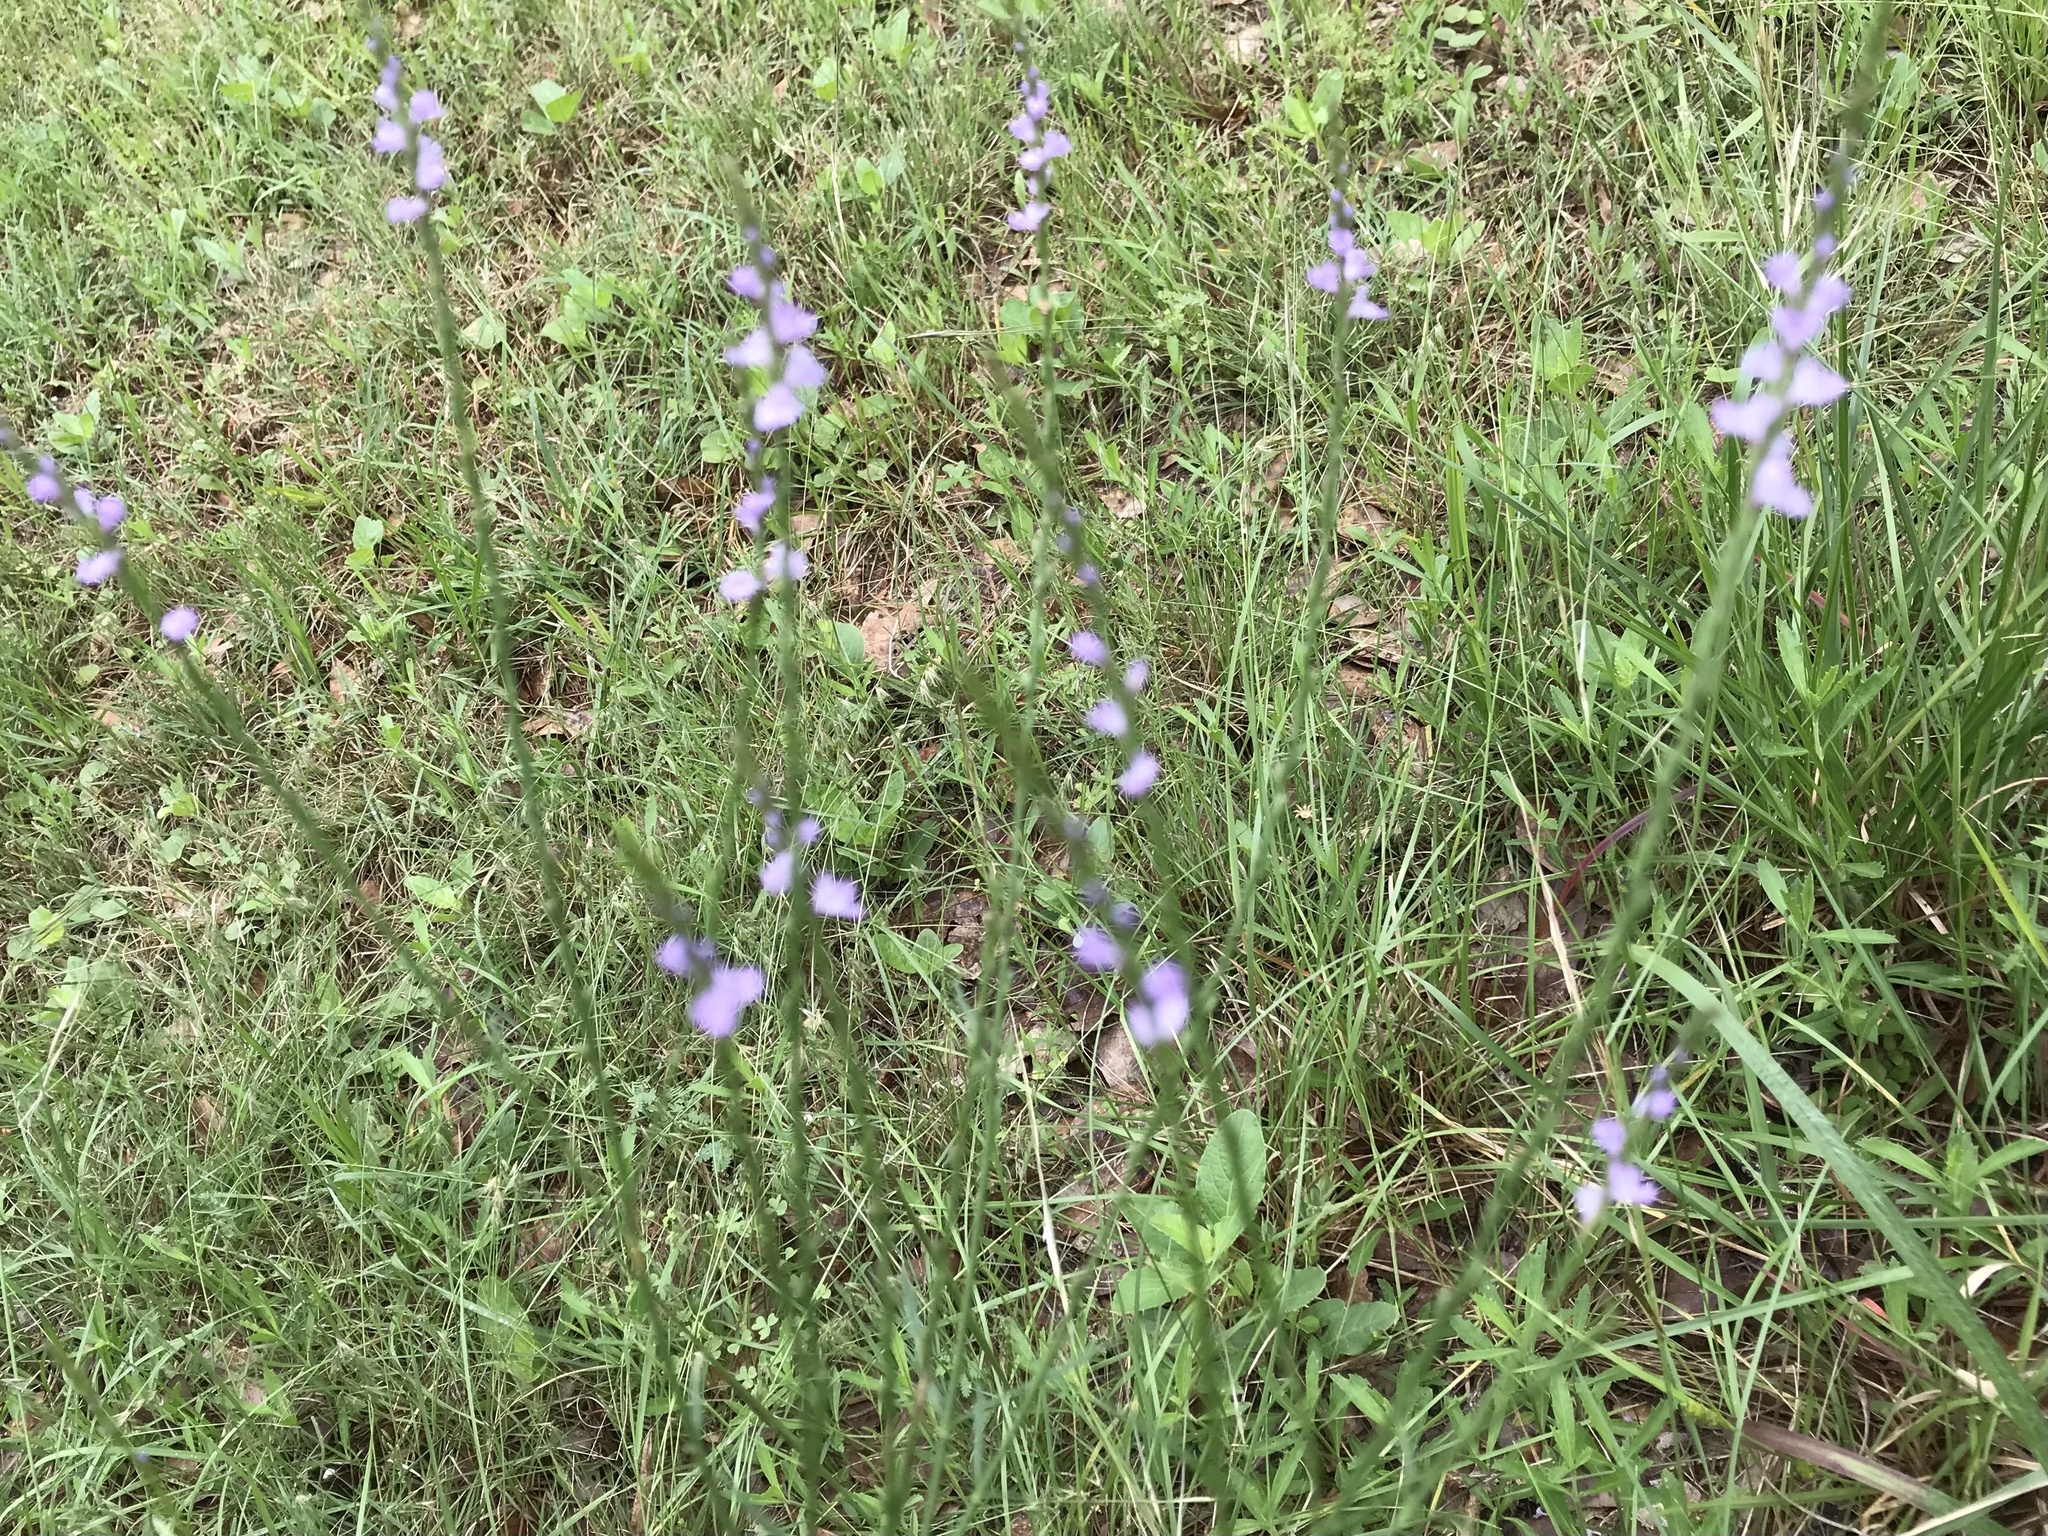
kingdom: Plantae
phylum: Tracheophyta
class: Magnoliopsida
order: Lamiales
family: Verbenaceae
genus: Verbena
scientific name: Verbena halei
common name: Texas vervain
